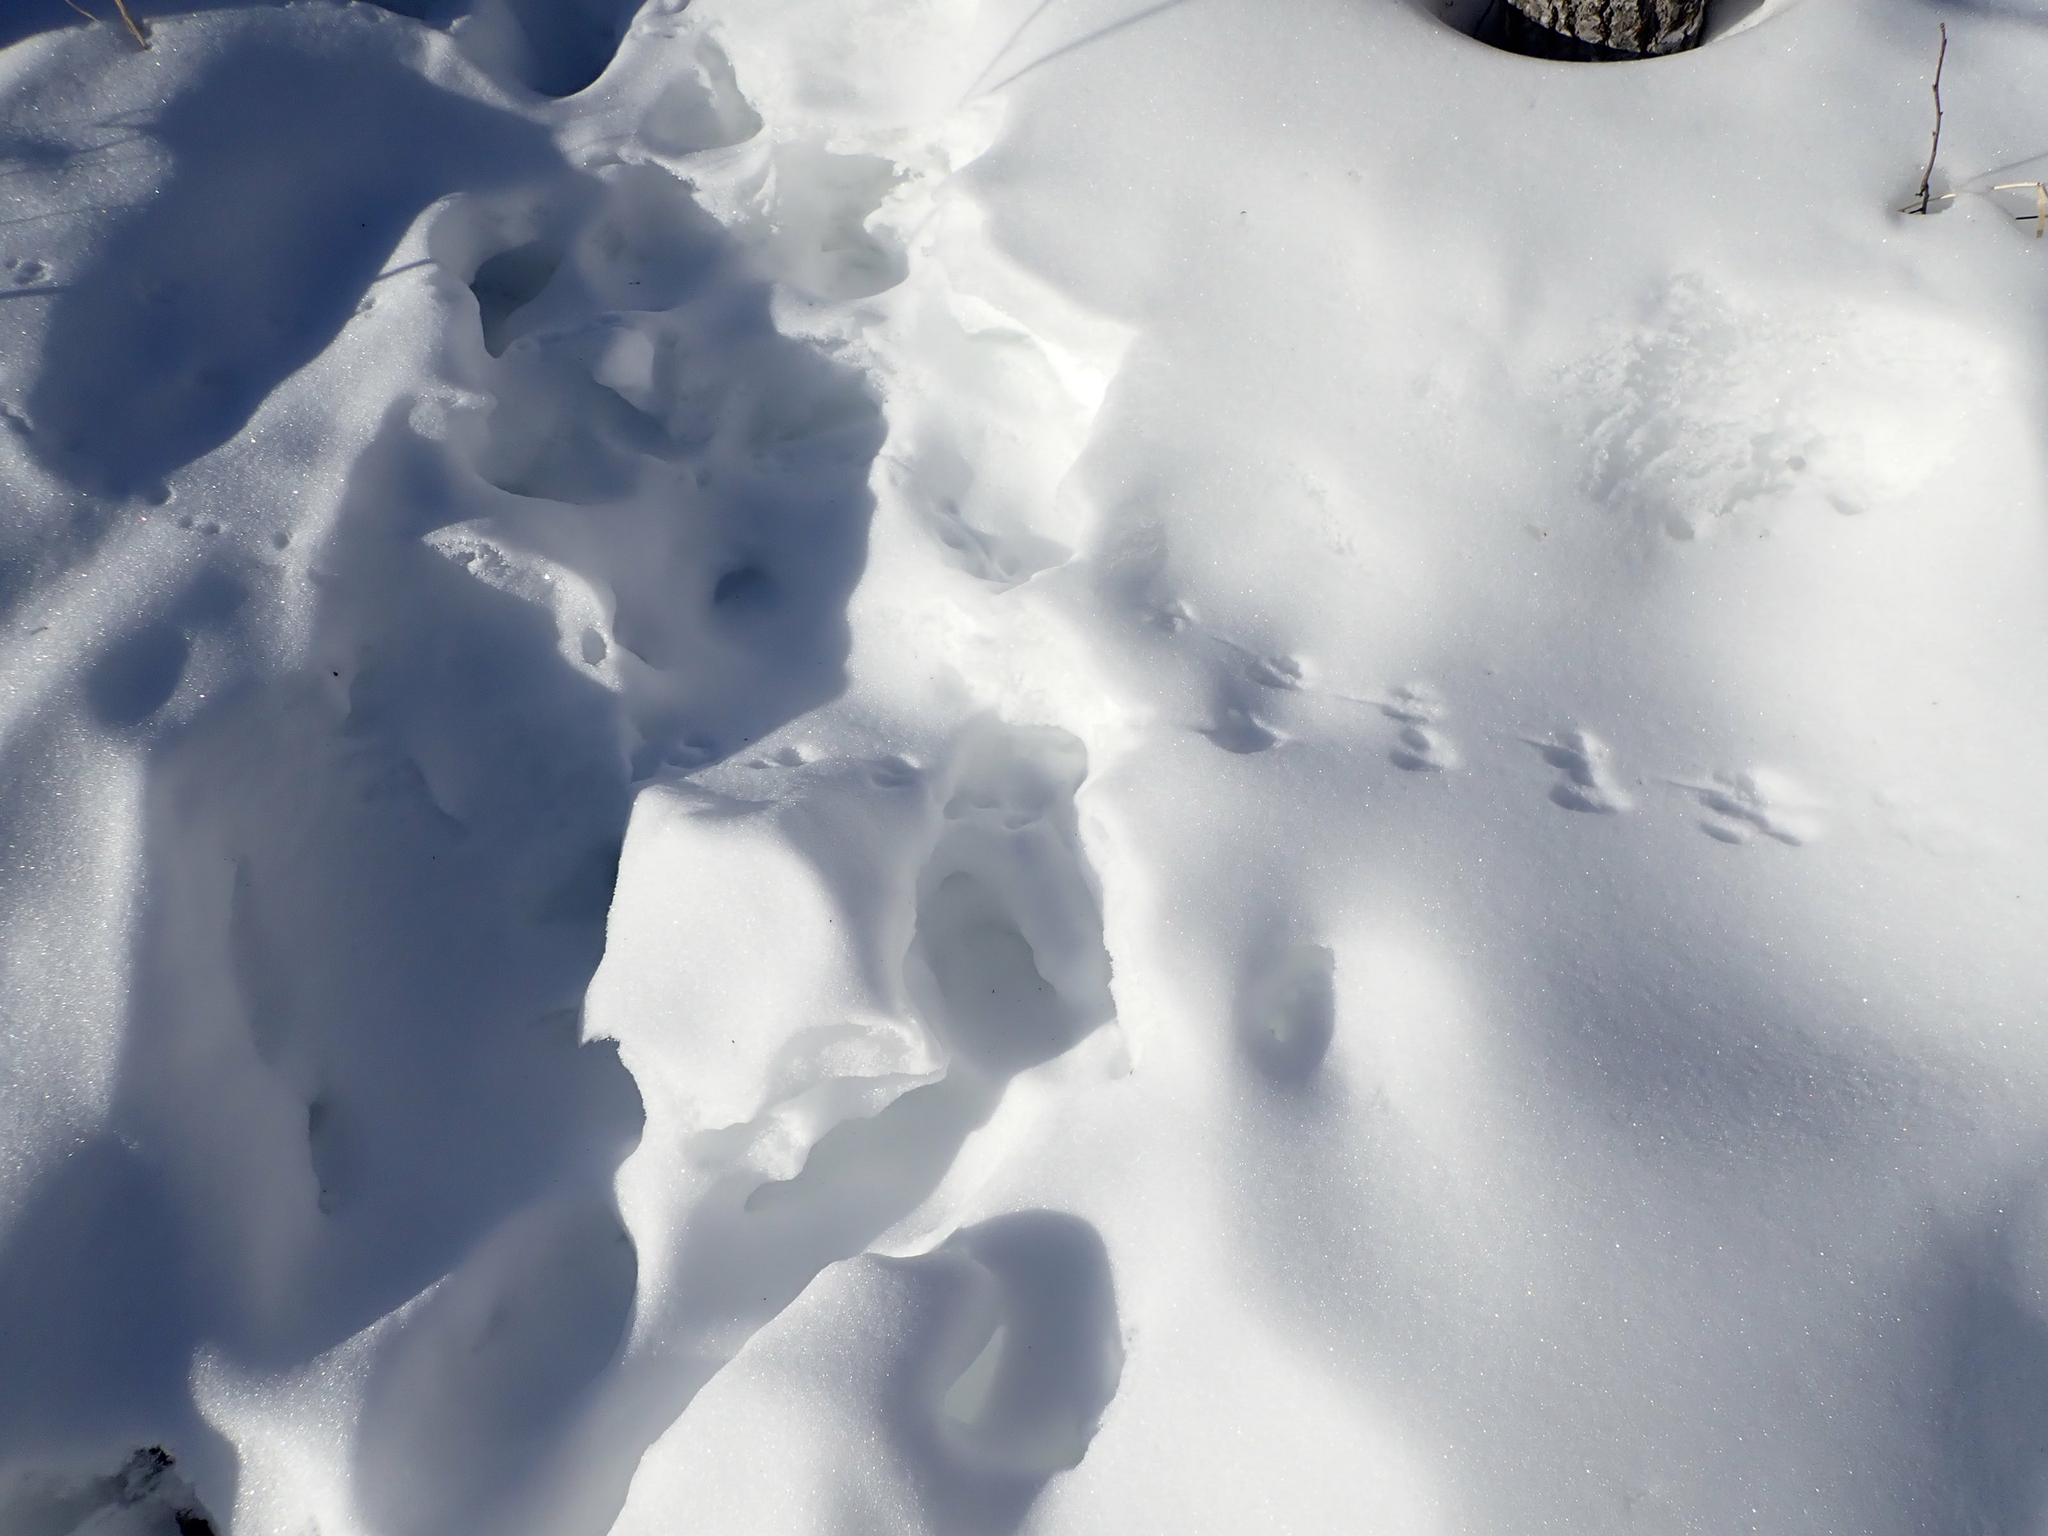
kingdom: Animalia
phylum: Chordata
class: Mammalia
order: Carnivora
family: Mustelidae
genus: Mustela
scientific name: Mustela nivalis
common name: Least weasel
